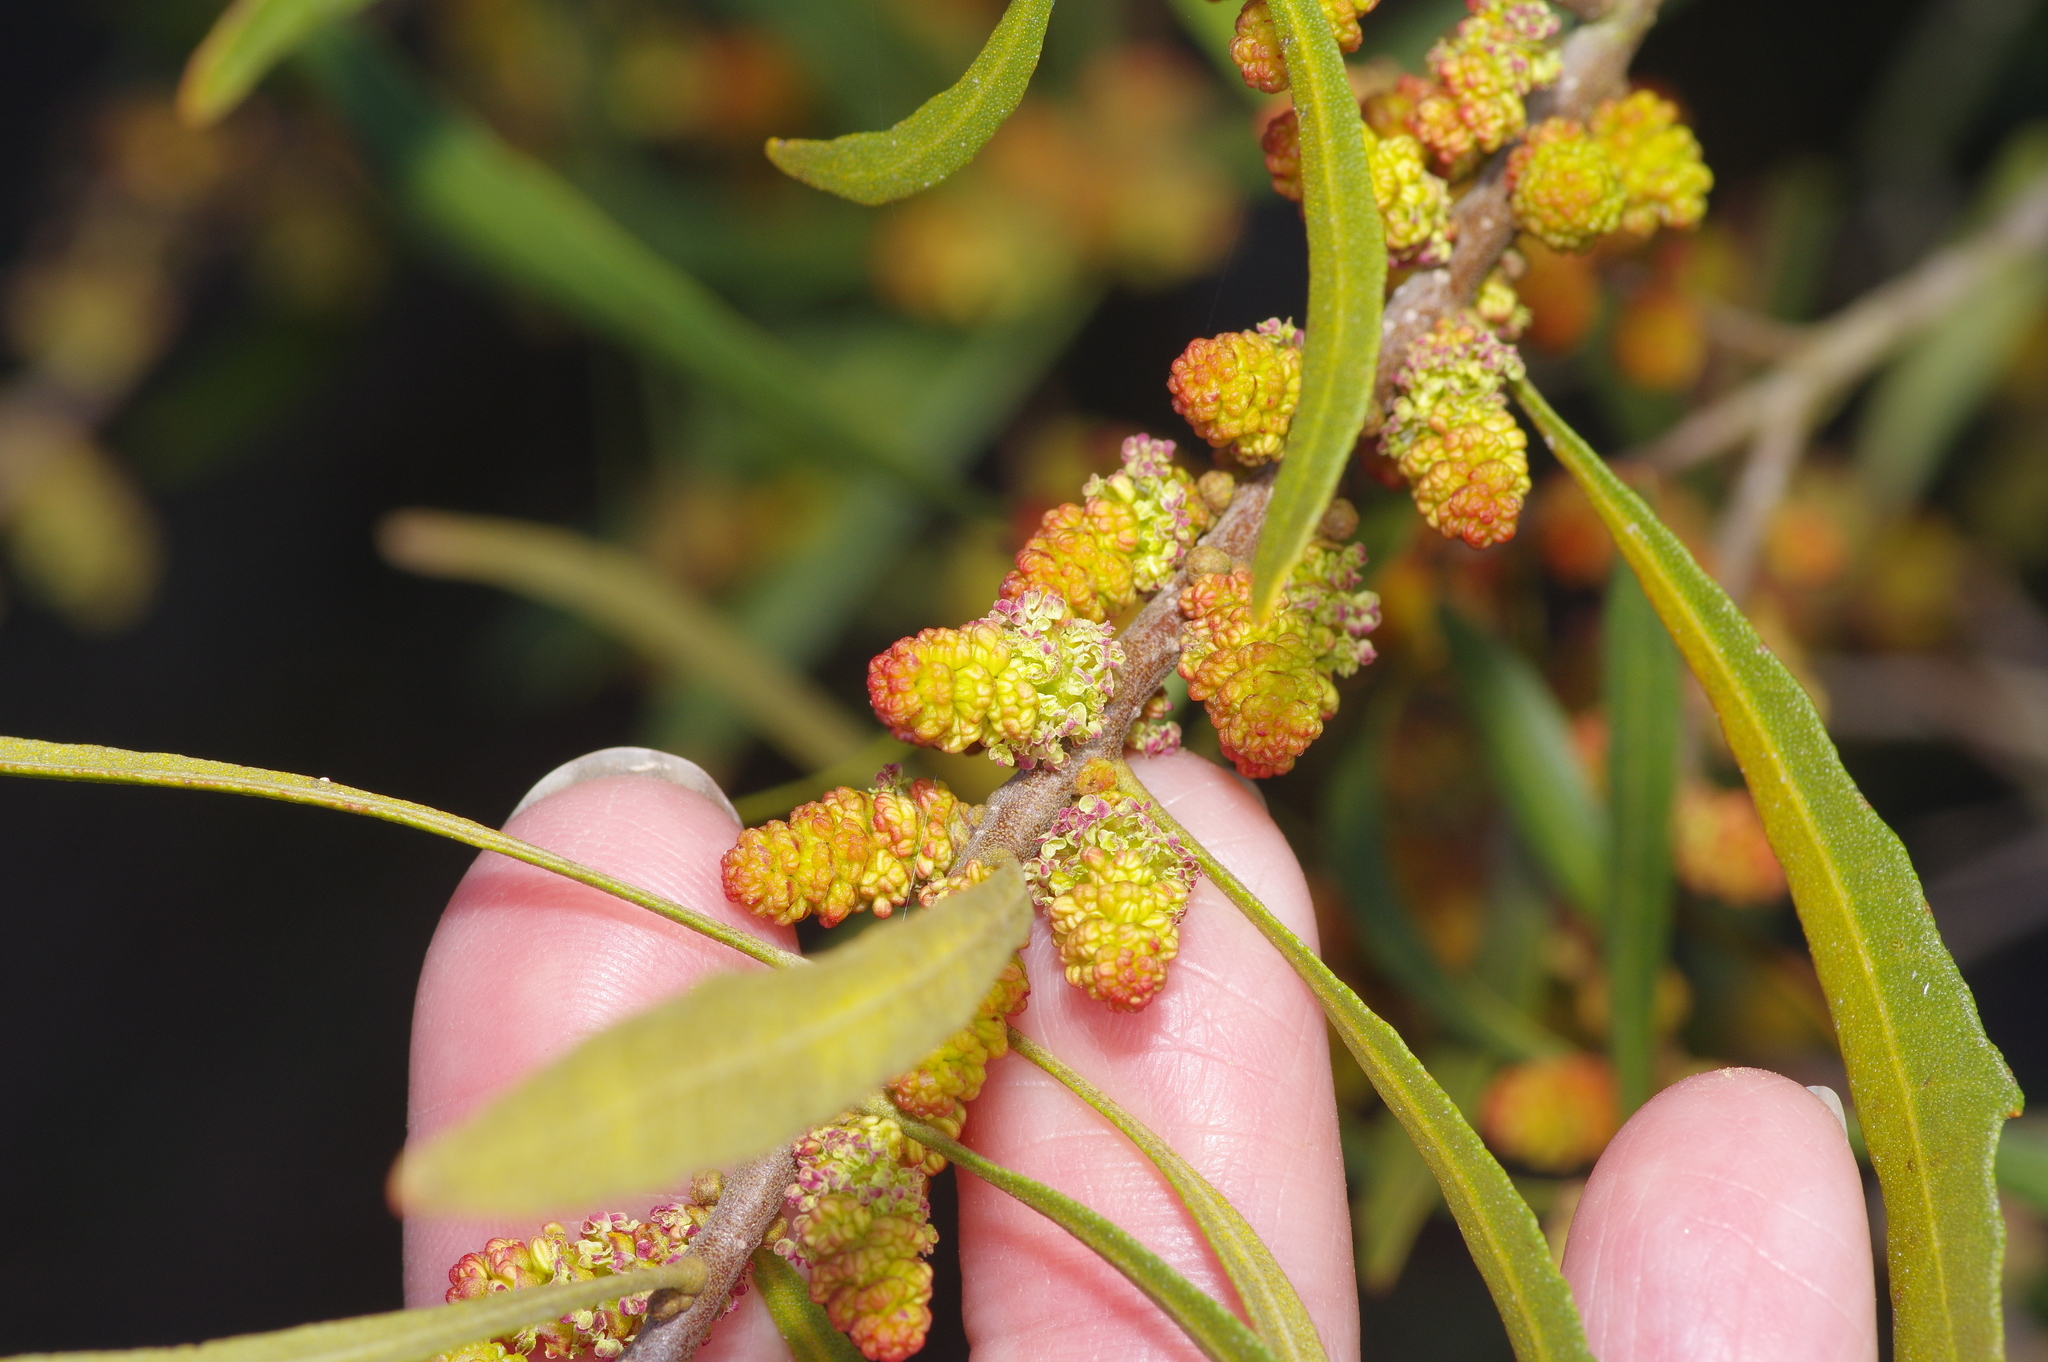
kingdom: Plantae
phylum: Tracheophyta
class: Magnoliopsida
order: Fagales
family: Myricaceae
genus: Morella
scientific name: Morella cerifera
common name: Wax myrtle
